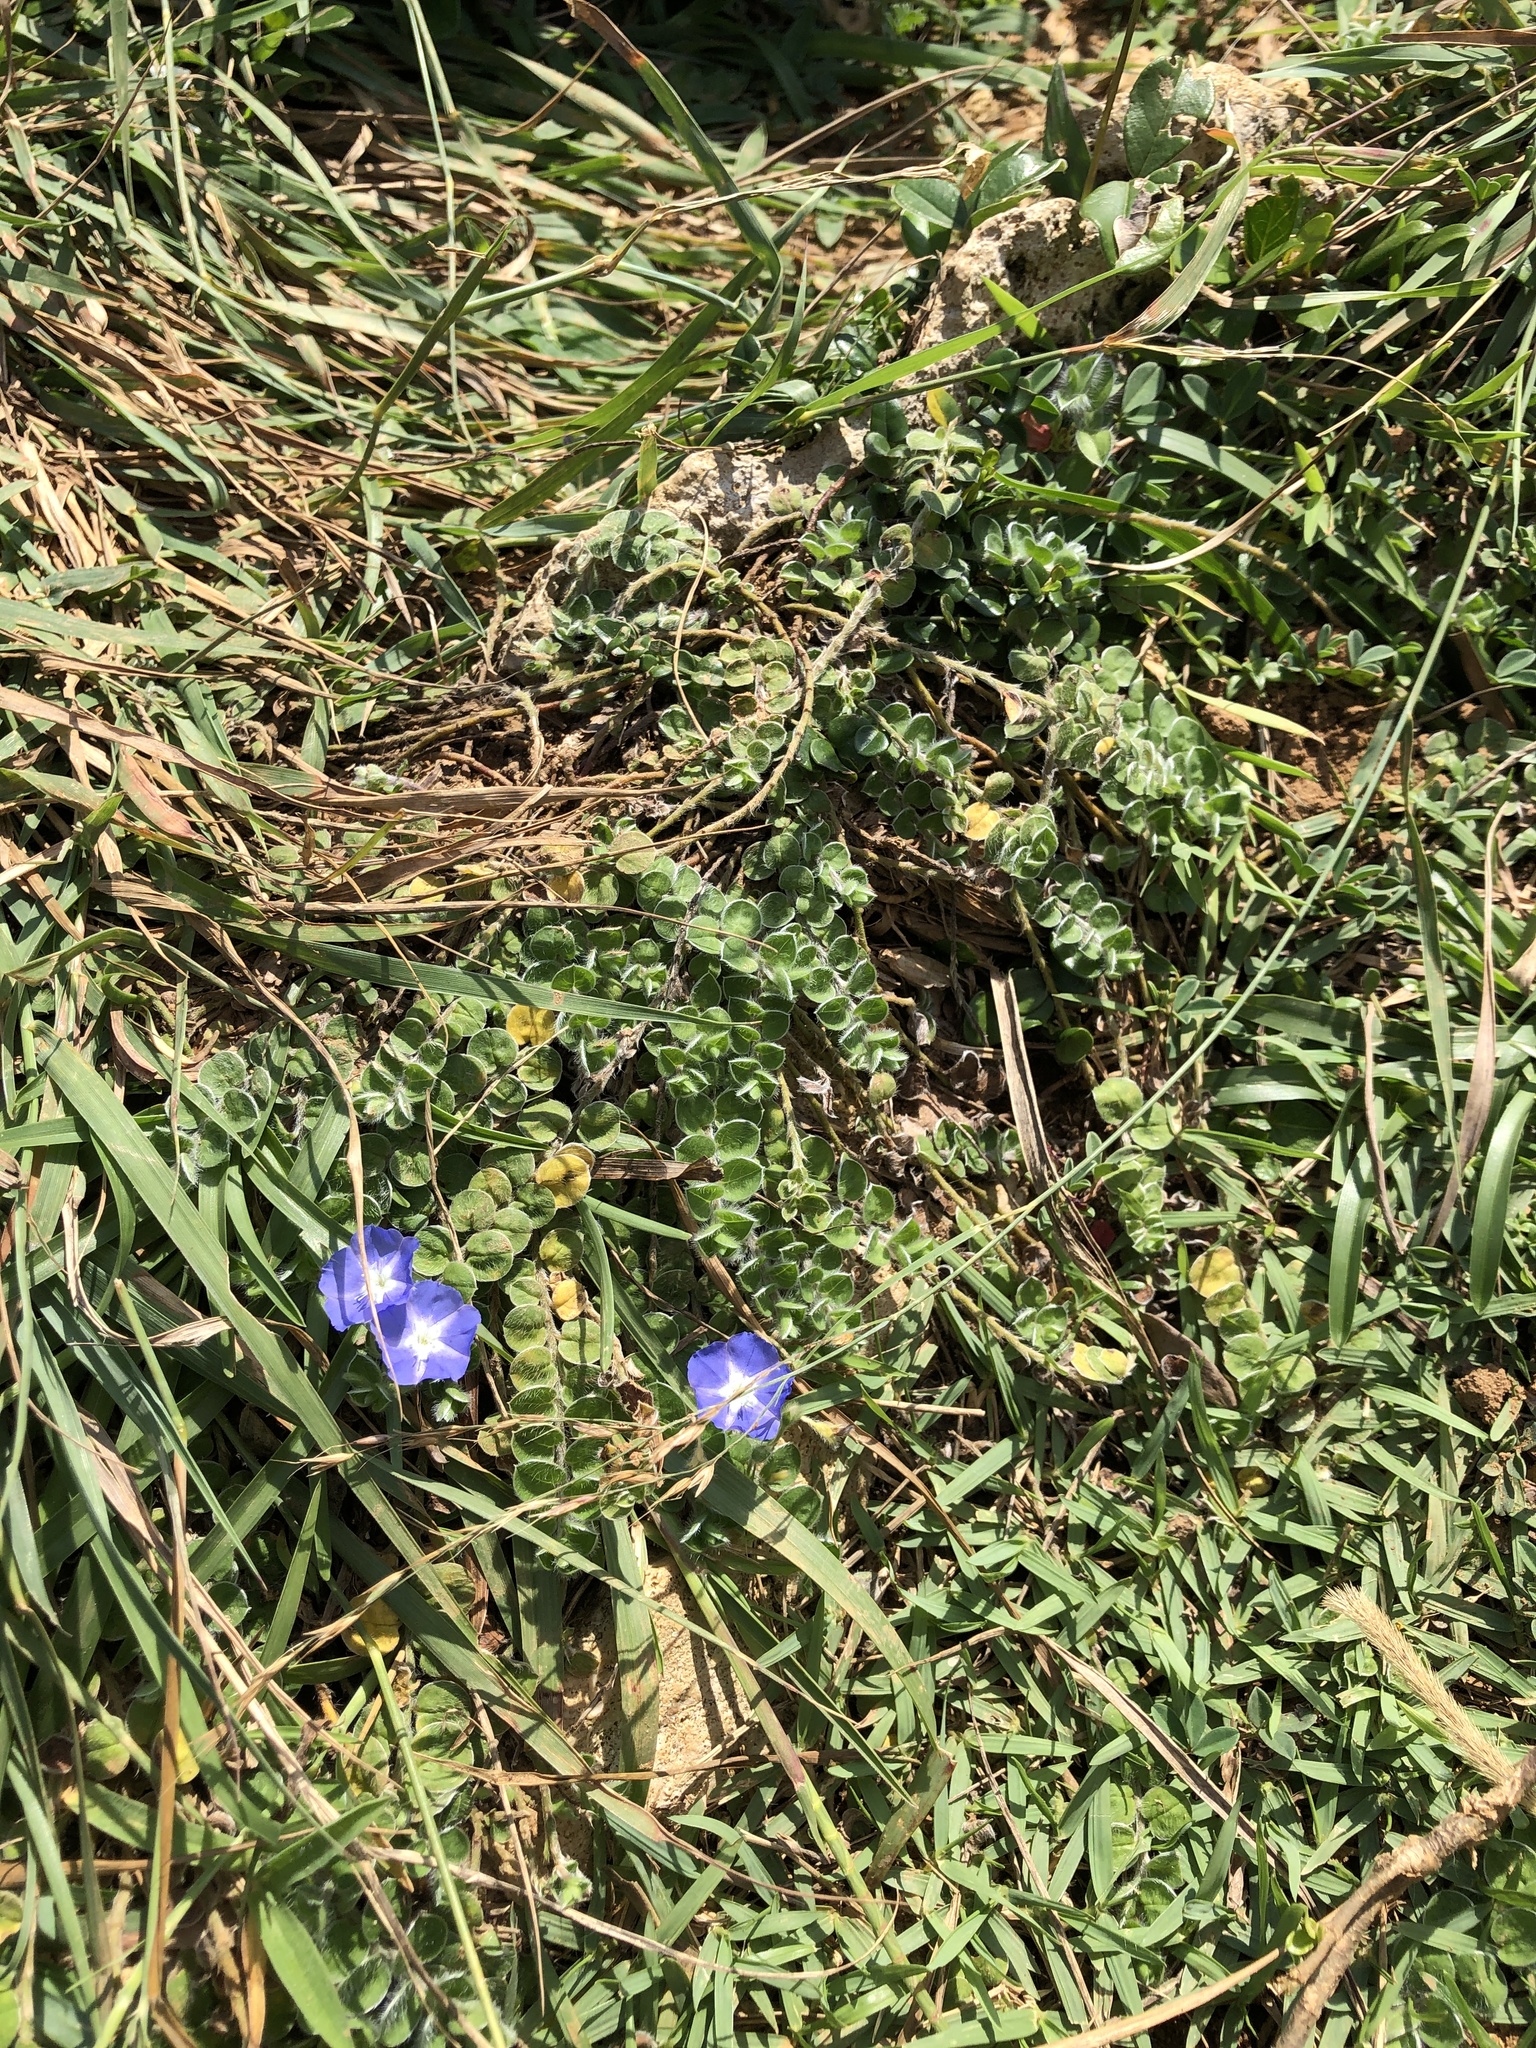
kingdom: Plantae
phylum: Tracheophyta
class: Magnoliopsida
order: Solanales
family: Convolvulaceae
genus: Evolvulus
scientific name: Evolvulus alsinoides
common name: Slender dwarf morning-glory
